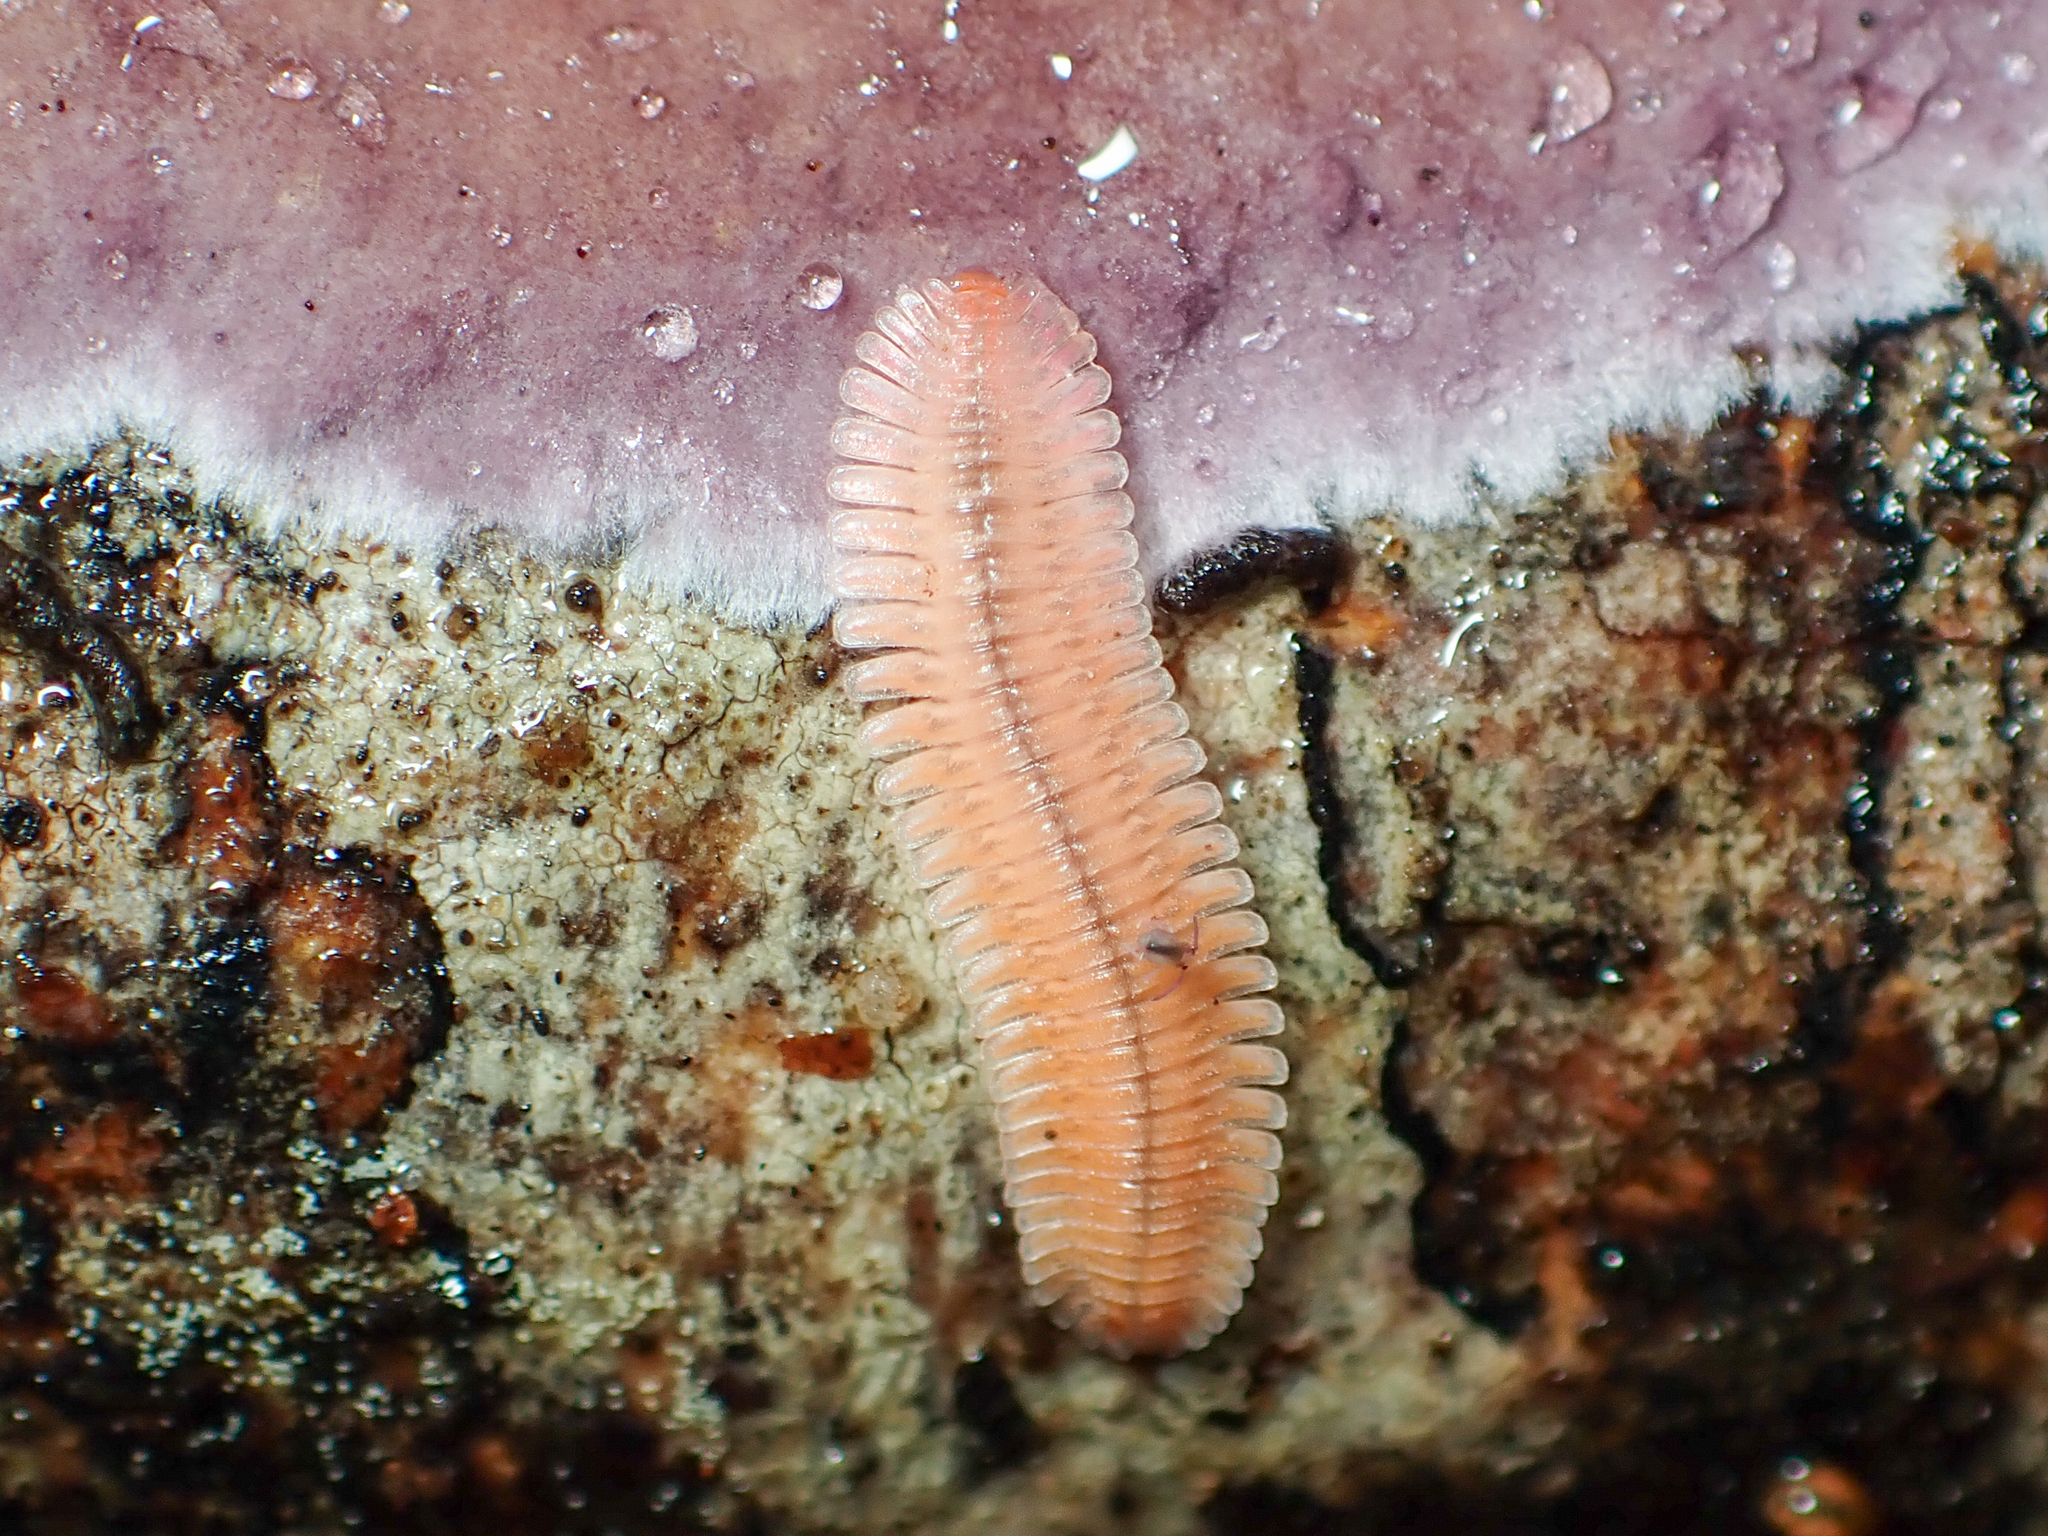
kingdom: Animalia
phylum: Arthropoda
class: Diplopoda
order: Platydesmida
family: Andrognathidae
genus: Brachycybe
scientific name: Brachycybe lecontii
